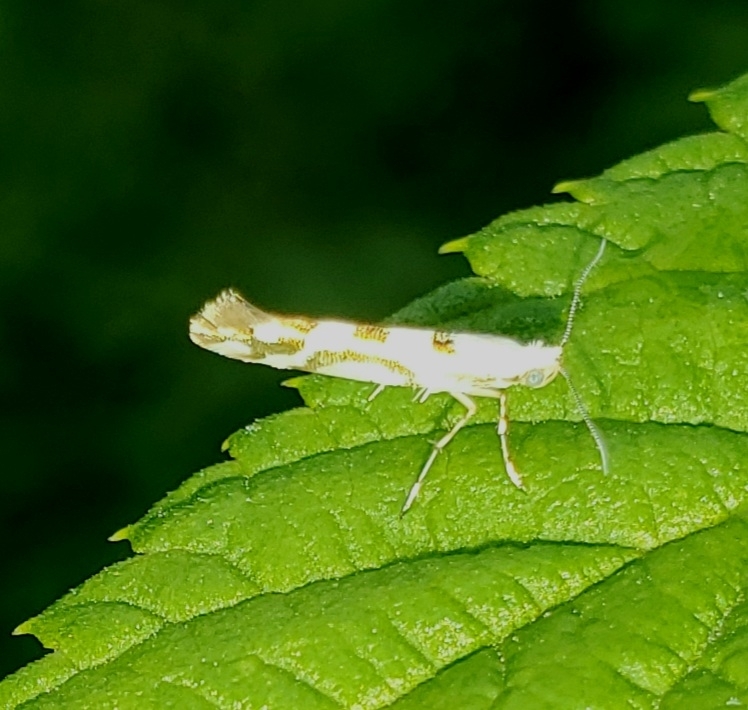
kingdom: Animalia
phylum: Arthropoda
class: Insecta
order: Lepidoptera
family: Argyresthiidae
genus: Argyresthia
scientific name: Argyresthia calliphanes
